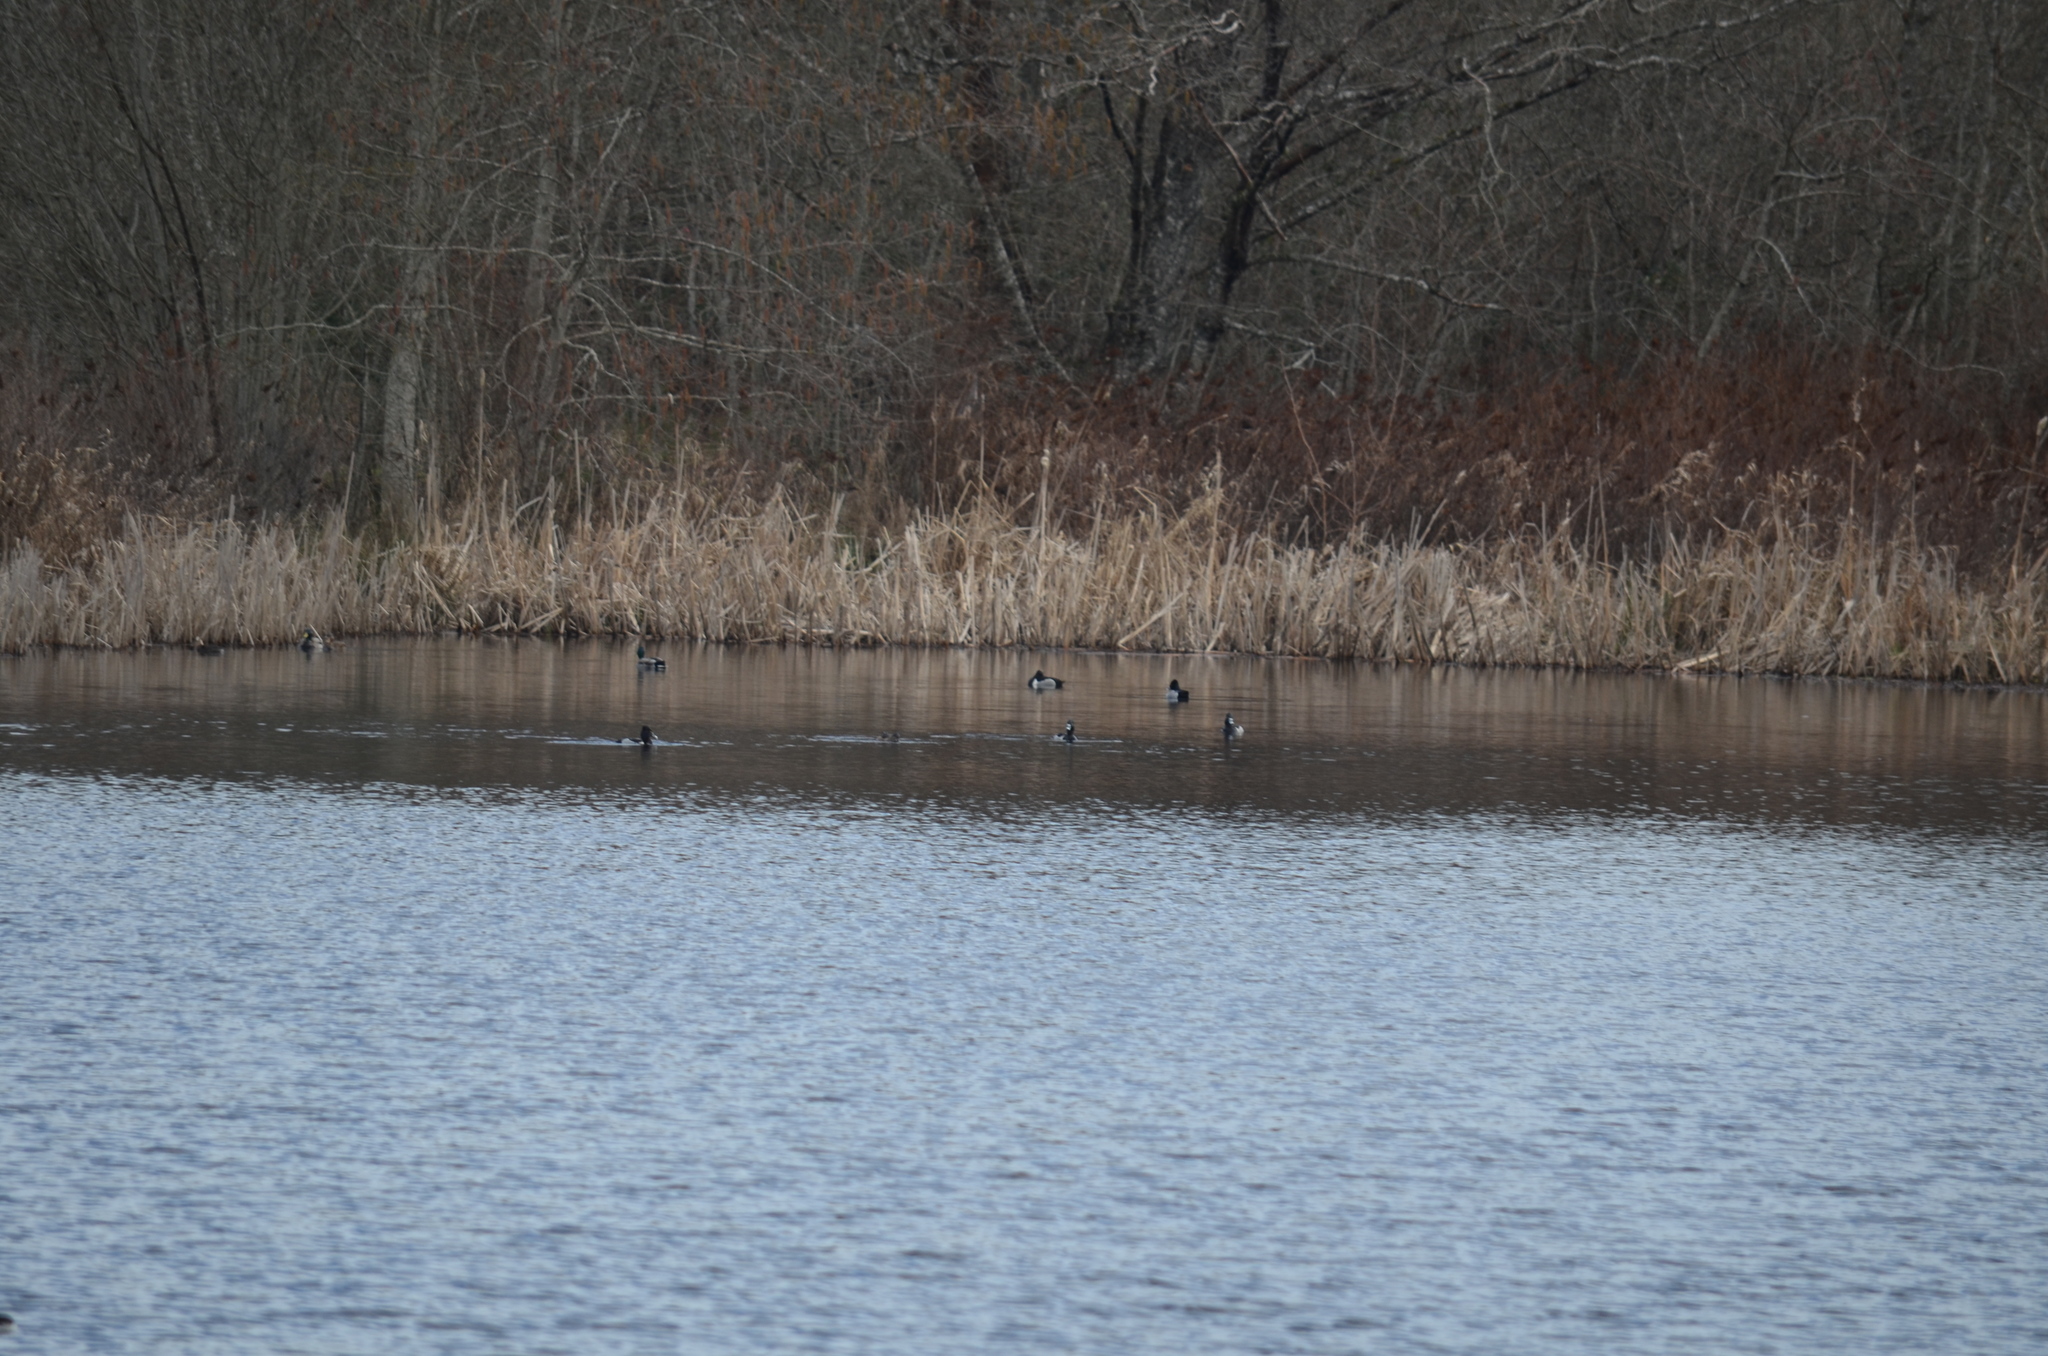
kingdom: Animalia
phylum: Chordata
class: Aves
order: Anseriformes
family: Anatidae
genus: Aythya
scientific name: Aythya collaris
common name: Ring-necked duck
